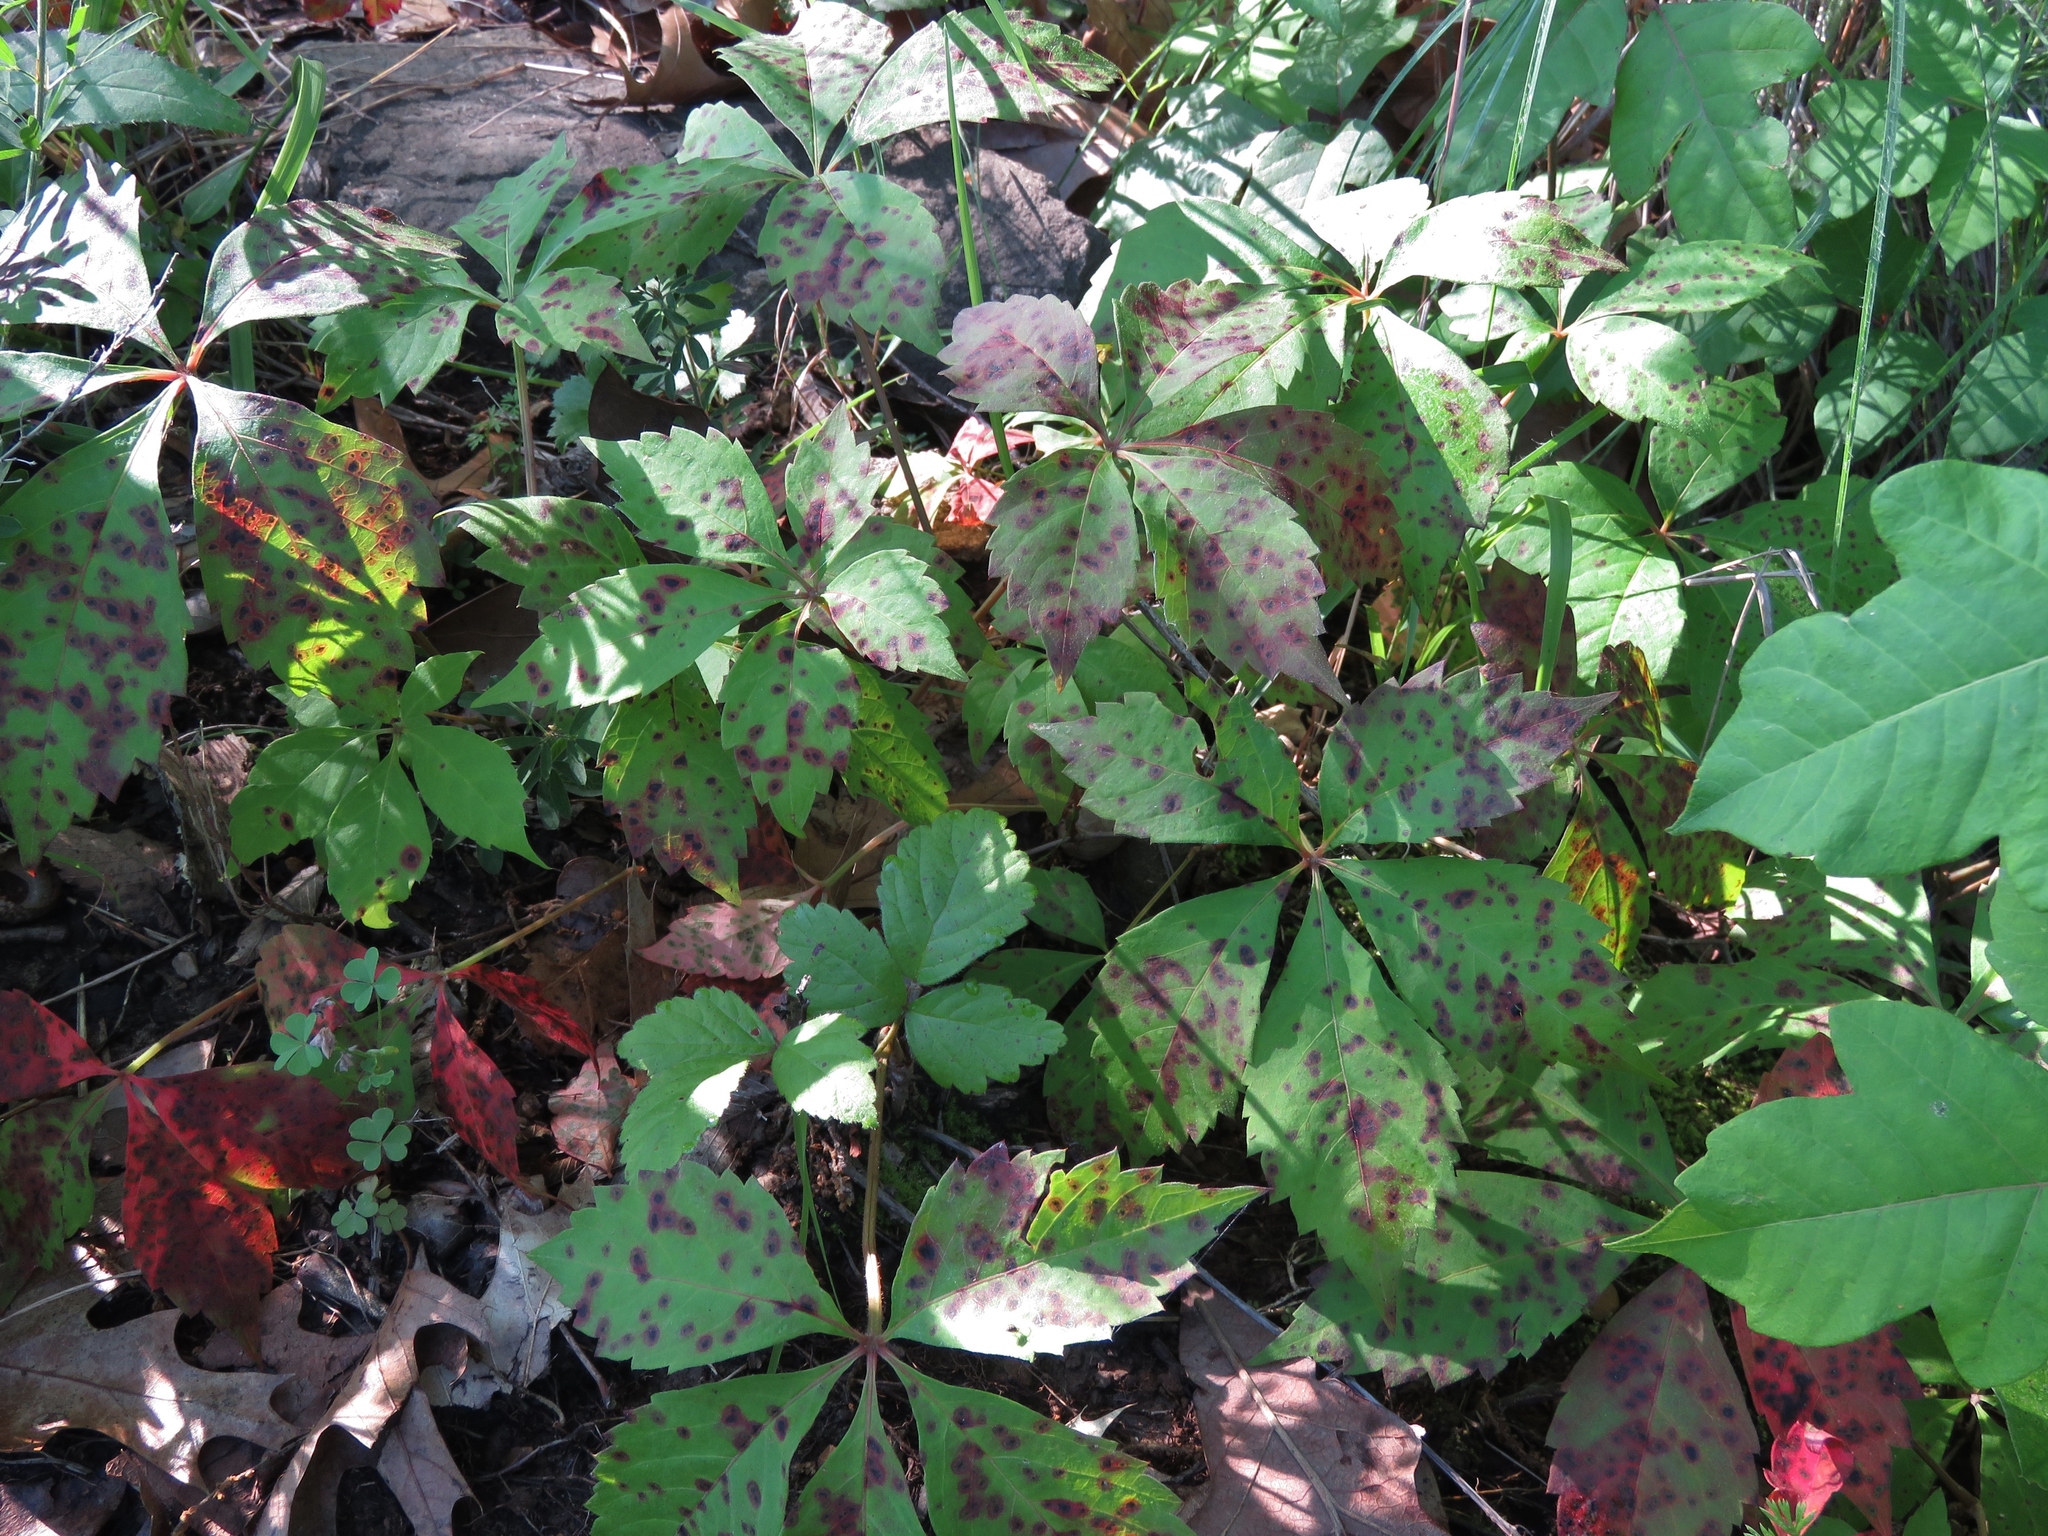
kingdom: Plantae
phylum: Tracheophyta
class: Magnoliopsida
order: Vitales
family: Vitaceae
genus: Parthenocissus
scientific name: Parthenocissus quinquefolia
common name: Virginia-creeper
